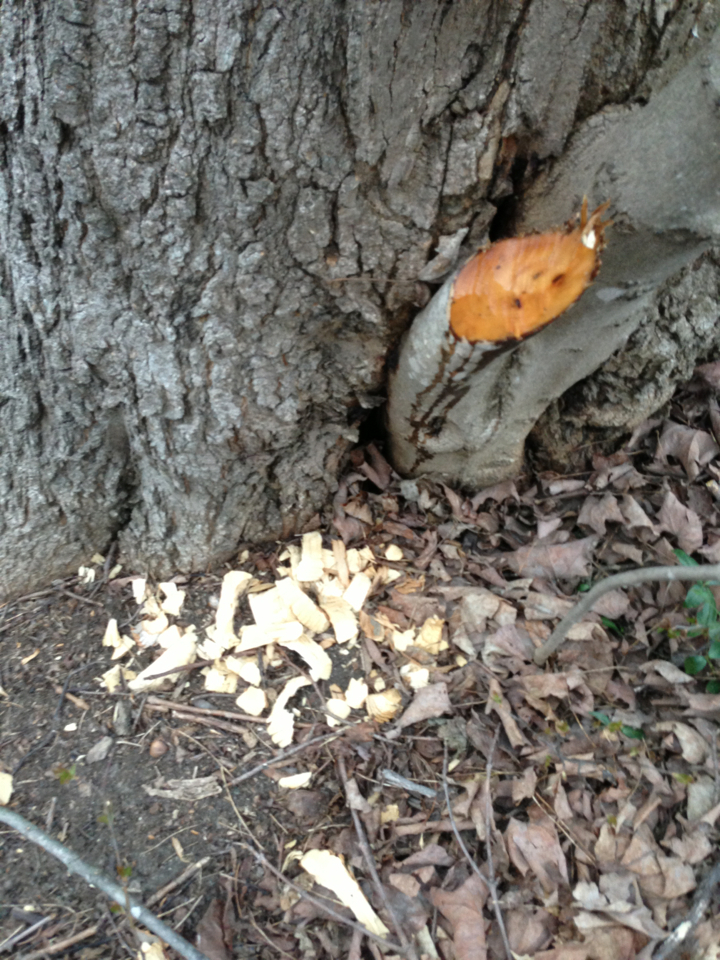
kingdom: Animalia
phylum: Chordata
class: Mammalia
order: Rodentia
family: Castoridae
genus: Castor
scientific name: Castor canadensis
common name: American beaver
